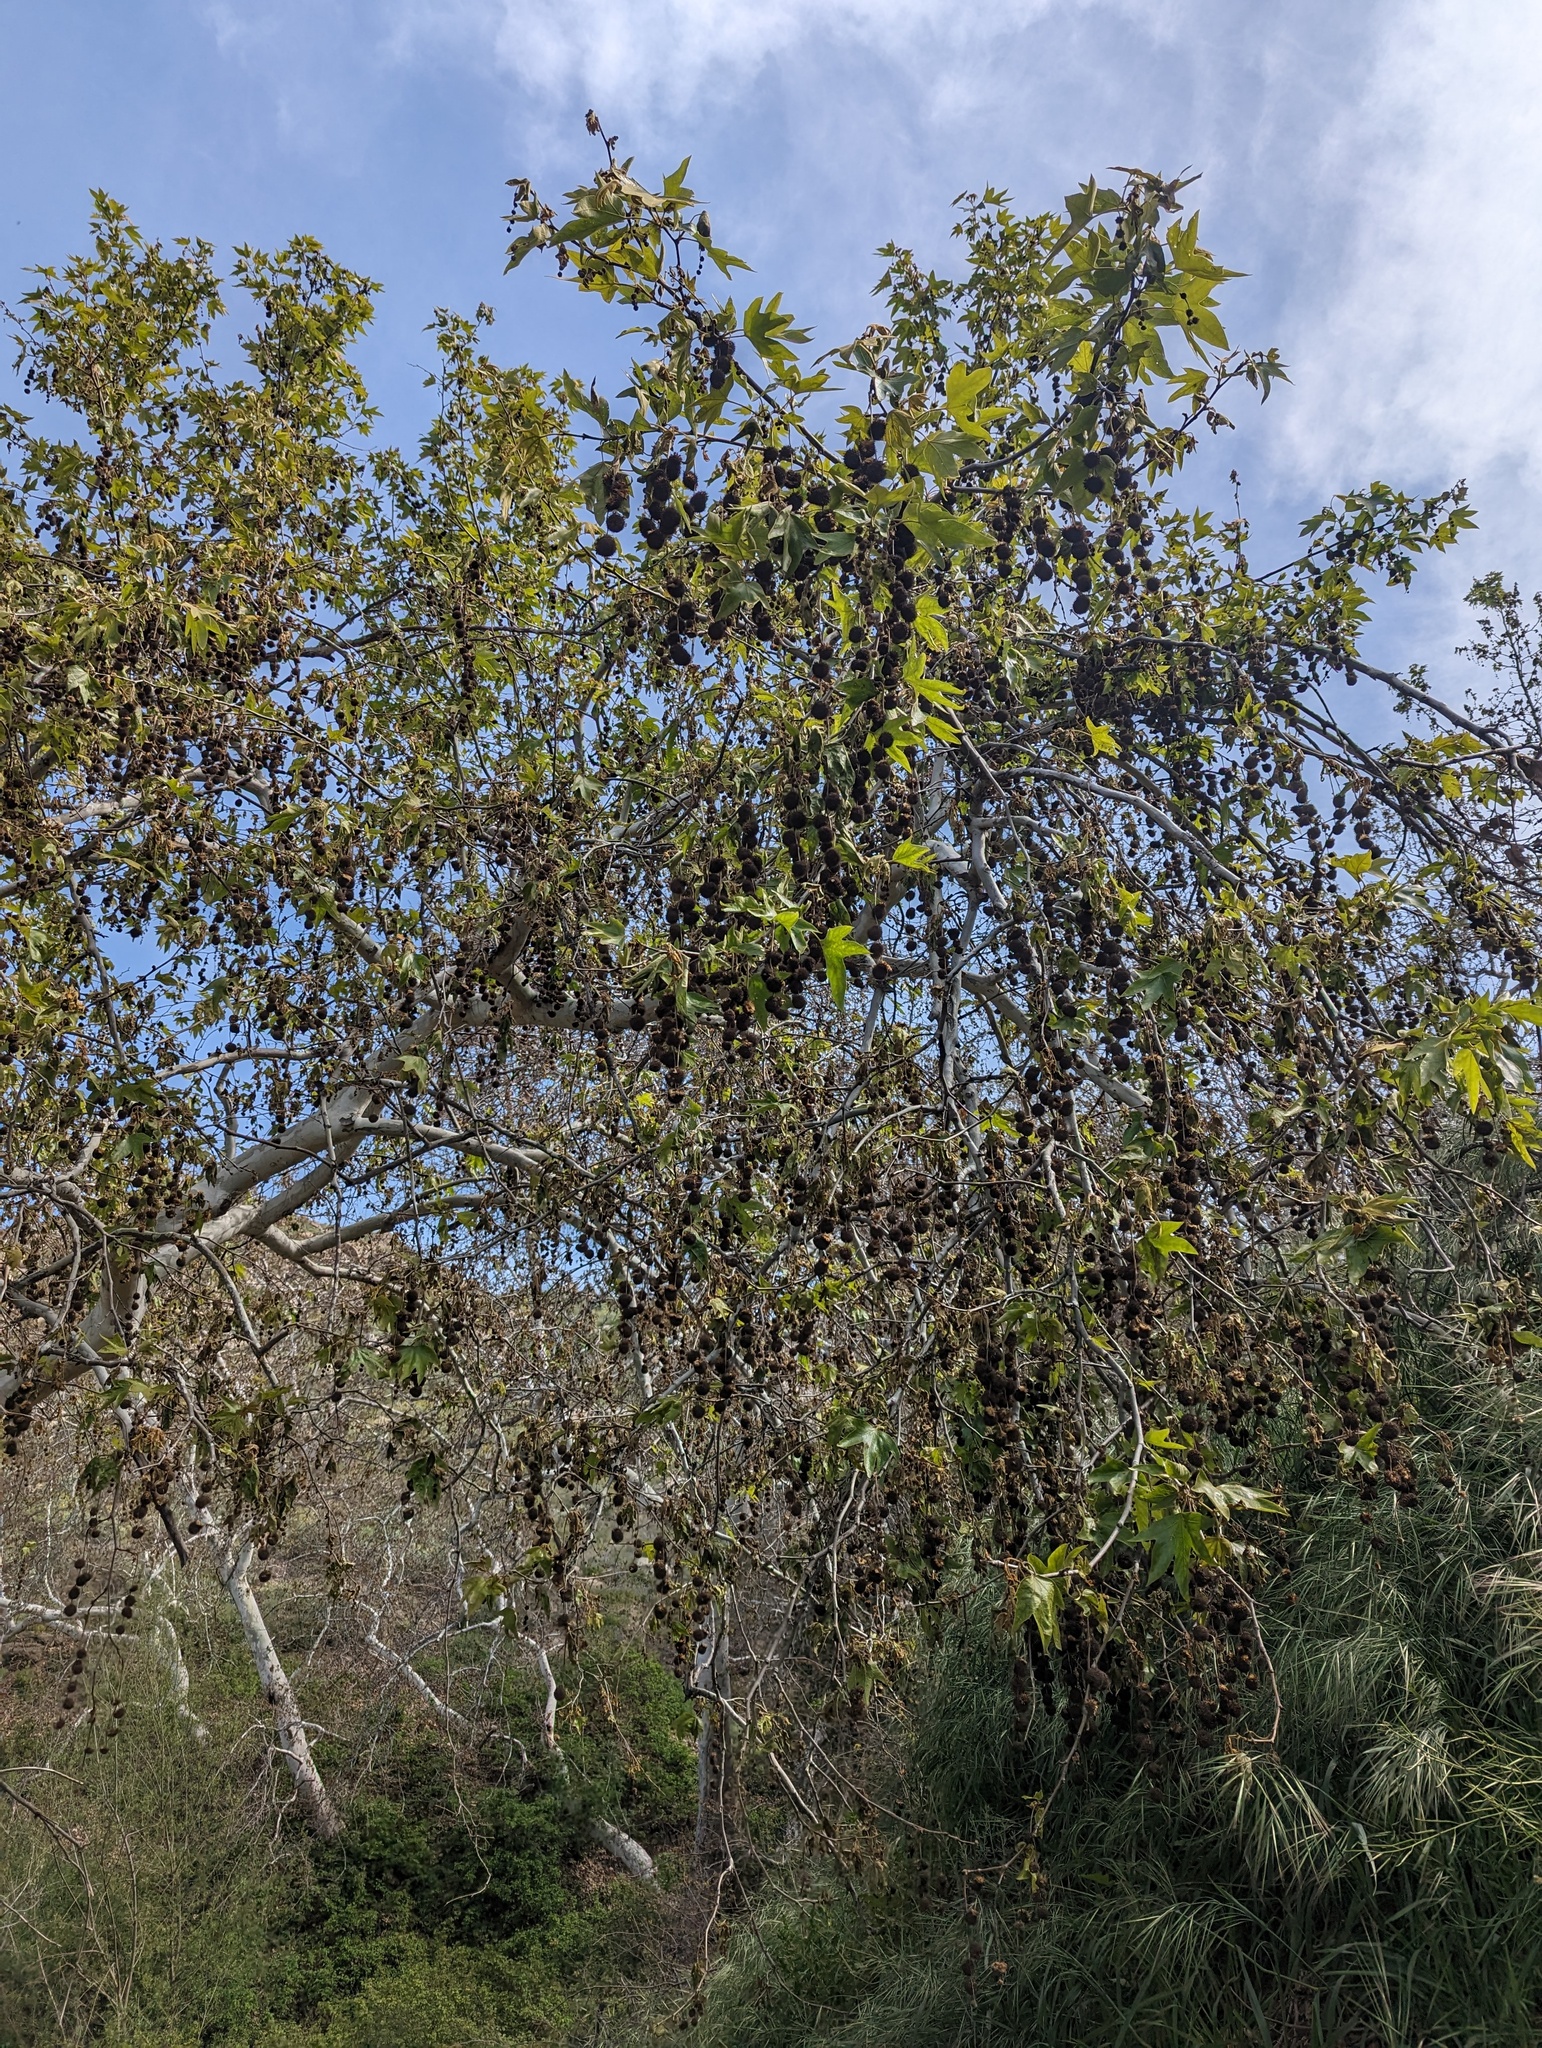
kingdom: Plantae
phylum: Tracheophyta
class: Magnoliopsida
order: Proteales
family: Platanaceae
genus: Platanus
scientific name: Platanus racemosa
